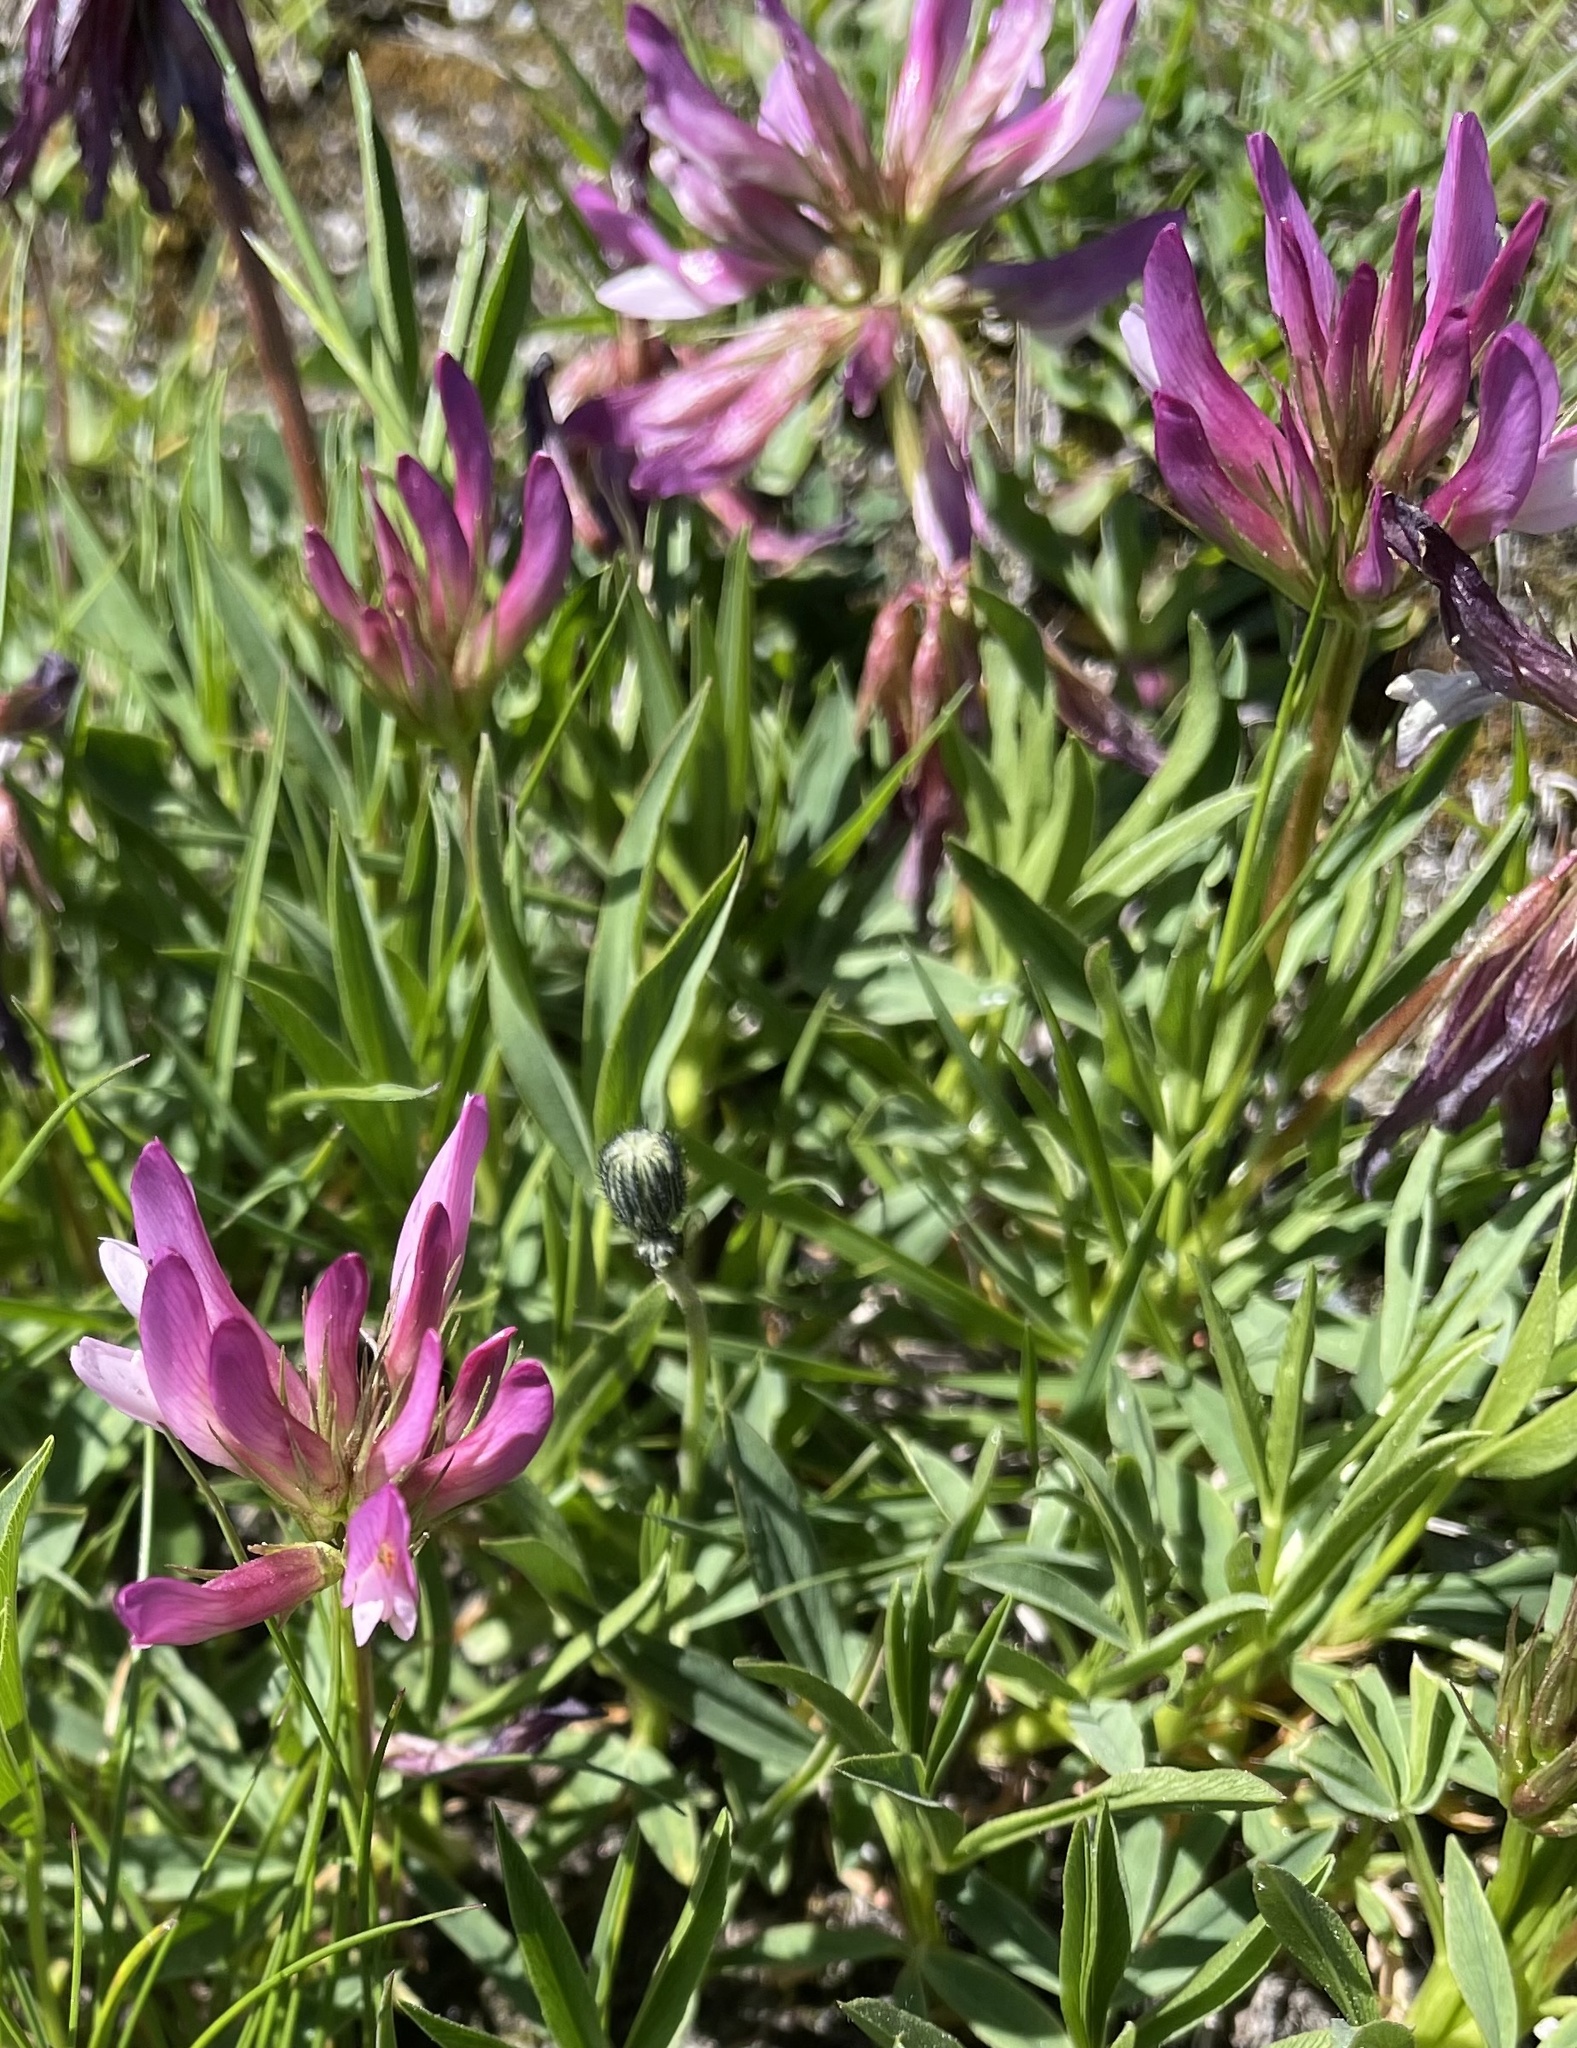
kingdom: Plantae
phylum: Tracheophyta
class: Magnoliopsida
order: Fabales
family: Fabaceae
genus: Trifolium
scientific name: Trifolium alpinum
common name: Alpine clover
